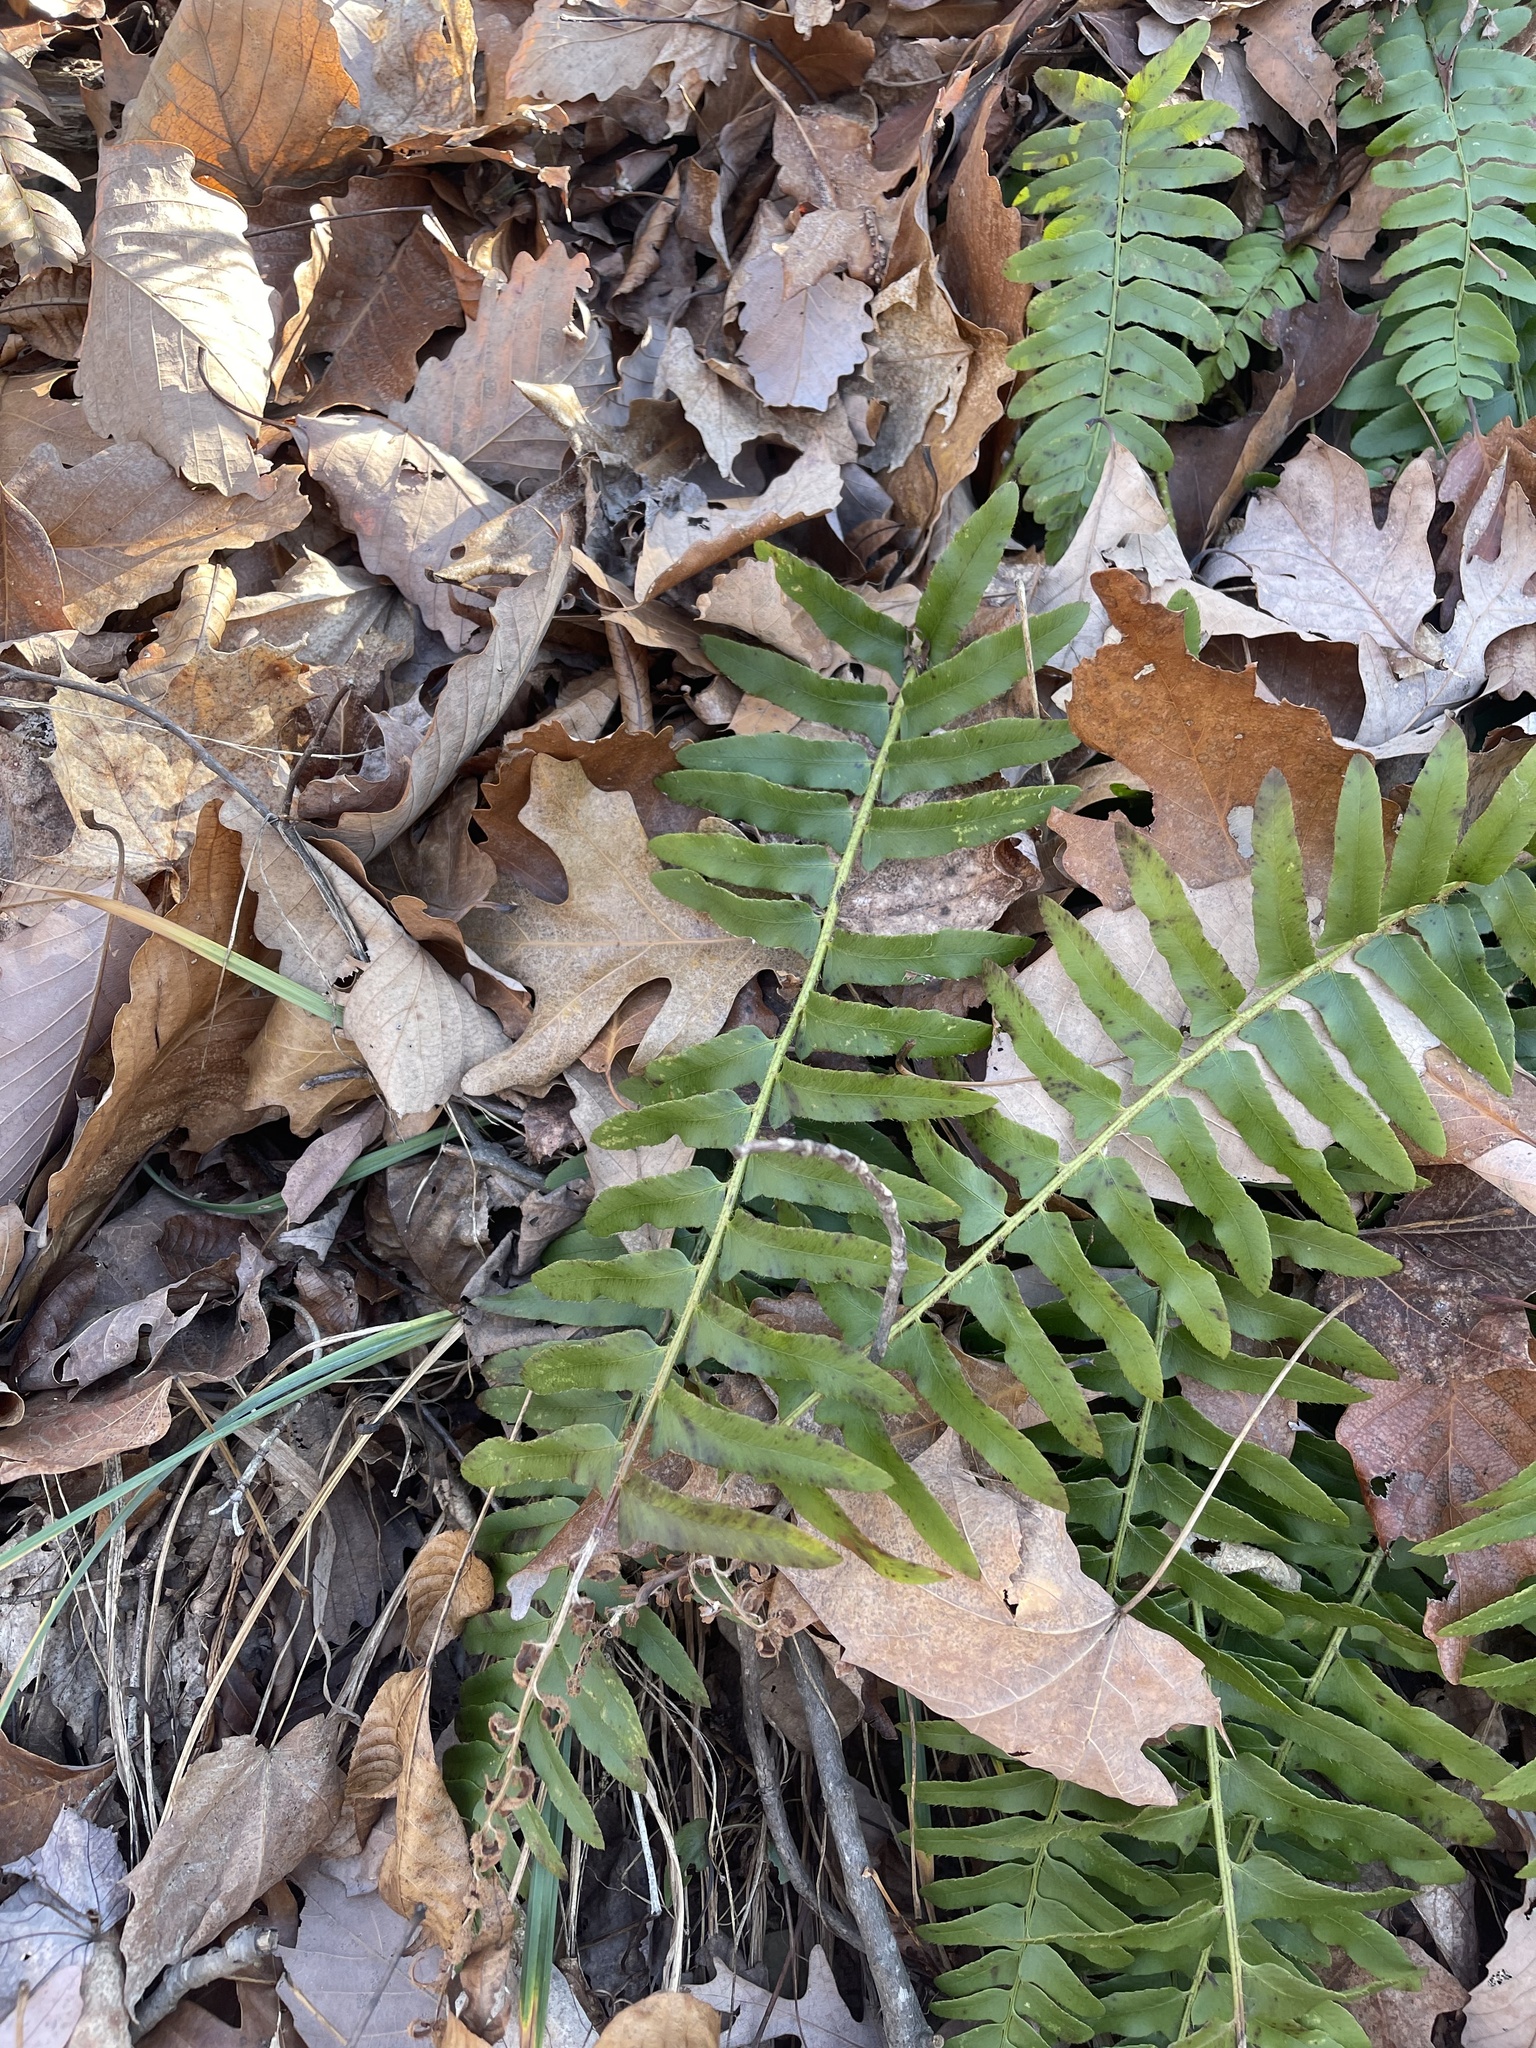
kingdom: Plantae
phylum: Tracheophyta
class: Polypodiopsida
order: Polypodiales
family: Dryopteridaceae
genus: Polystichum
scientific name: Polystichum acrostichoides
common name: Christmas fern
